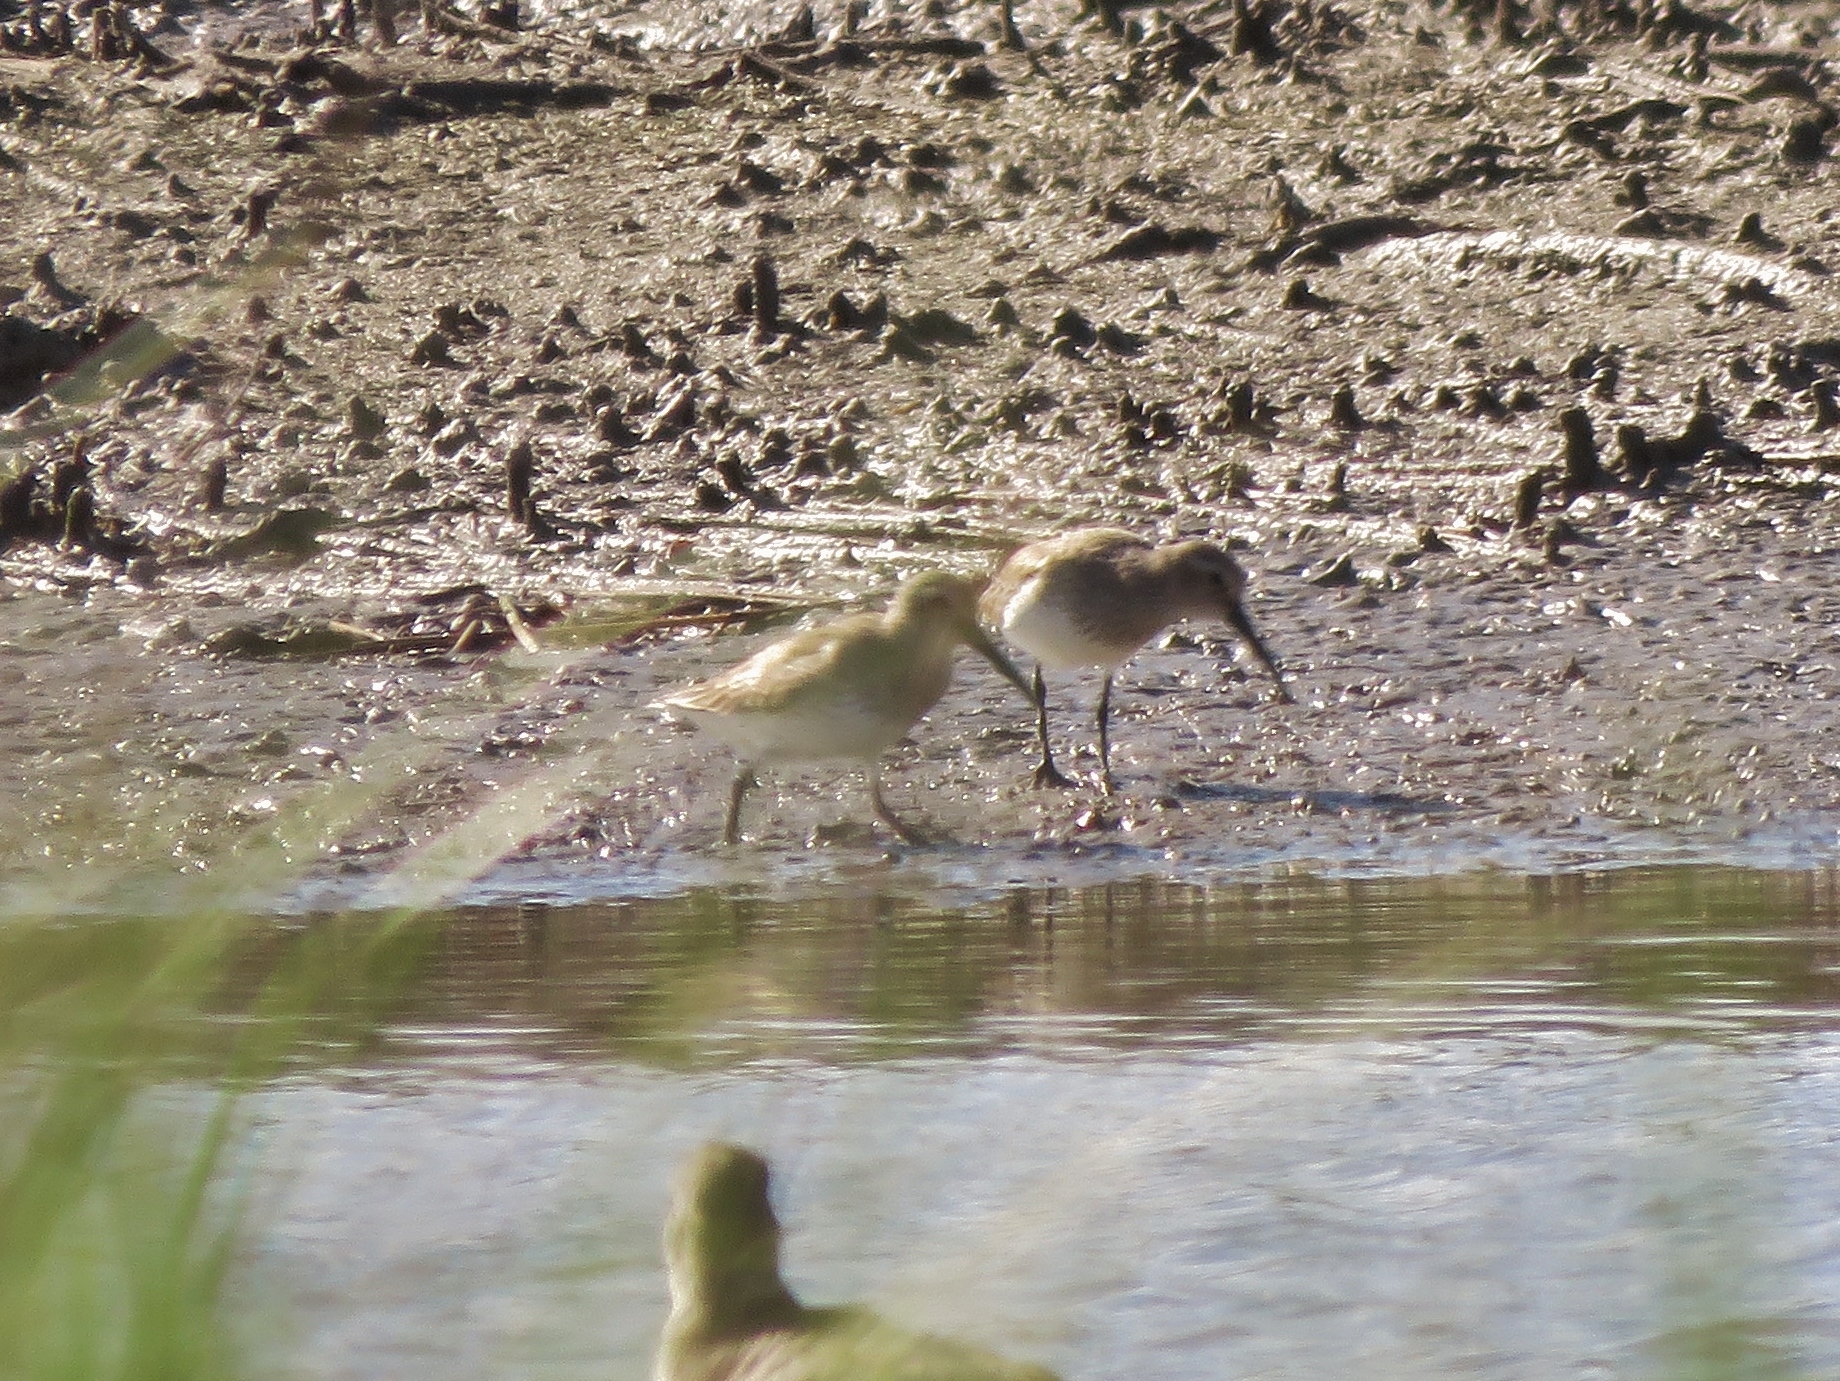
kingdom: Animalia
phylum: Chordata
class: Aves
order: Charadriiformes
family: Scolopacidae
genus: Calidris
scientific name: Calidris alpina
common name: Dunlin
